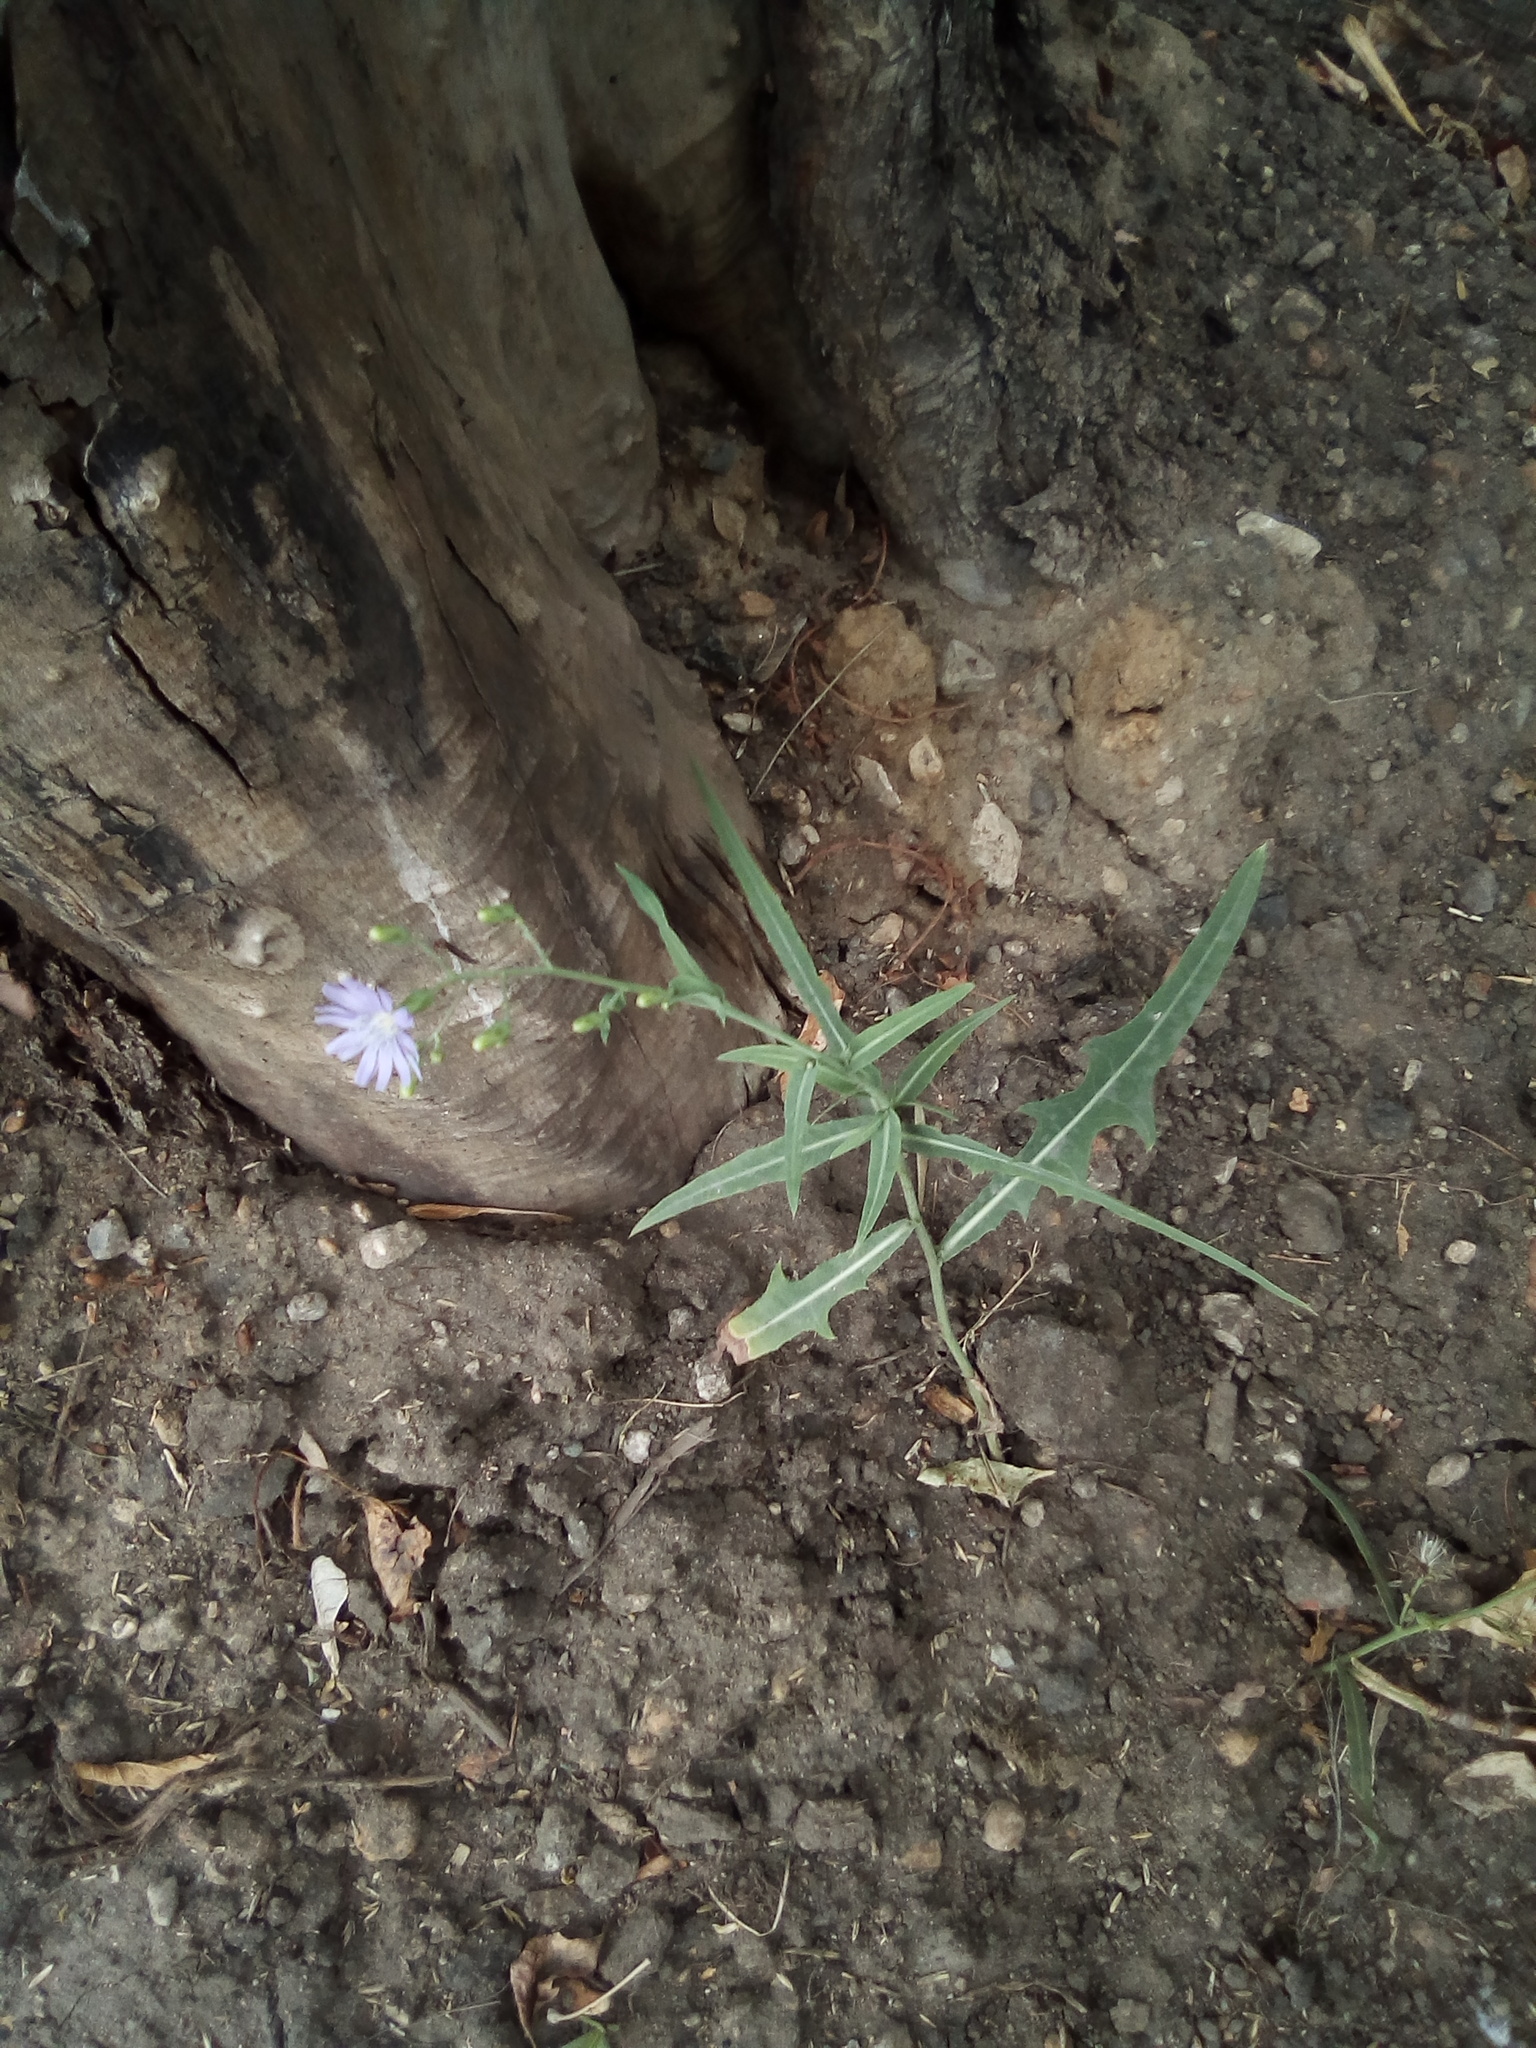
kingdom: Plantae
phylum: Tracheophyta
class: Magnoliopsida
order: Asterales
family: Asteraceae
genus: Lactuca
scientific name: Lactuca tatarica
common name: Blue lettuce
